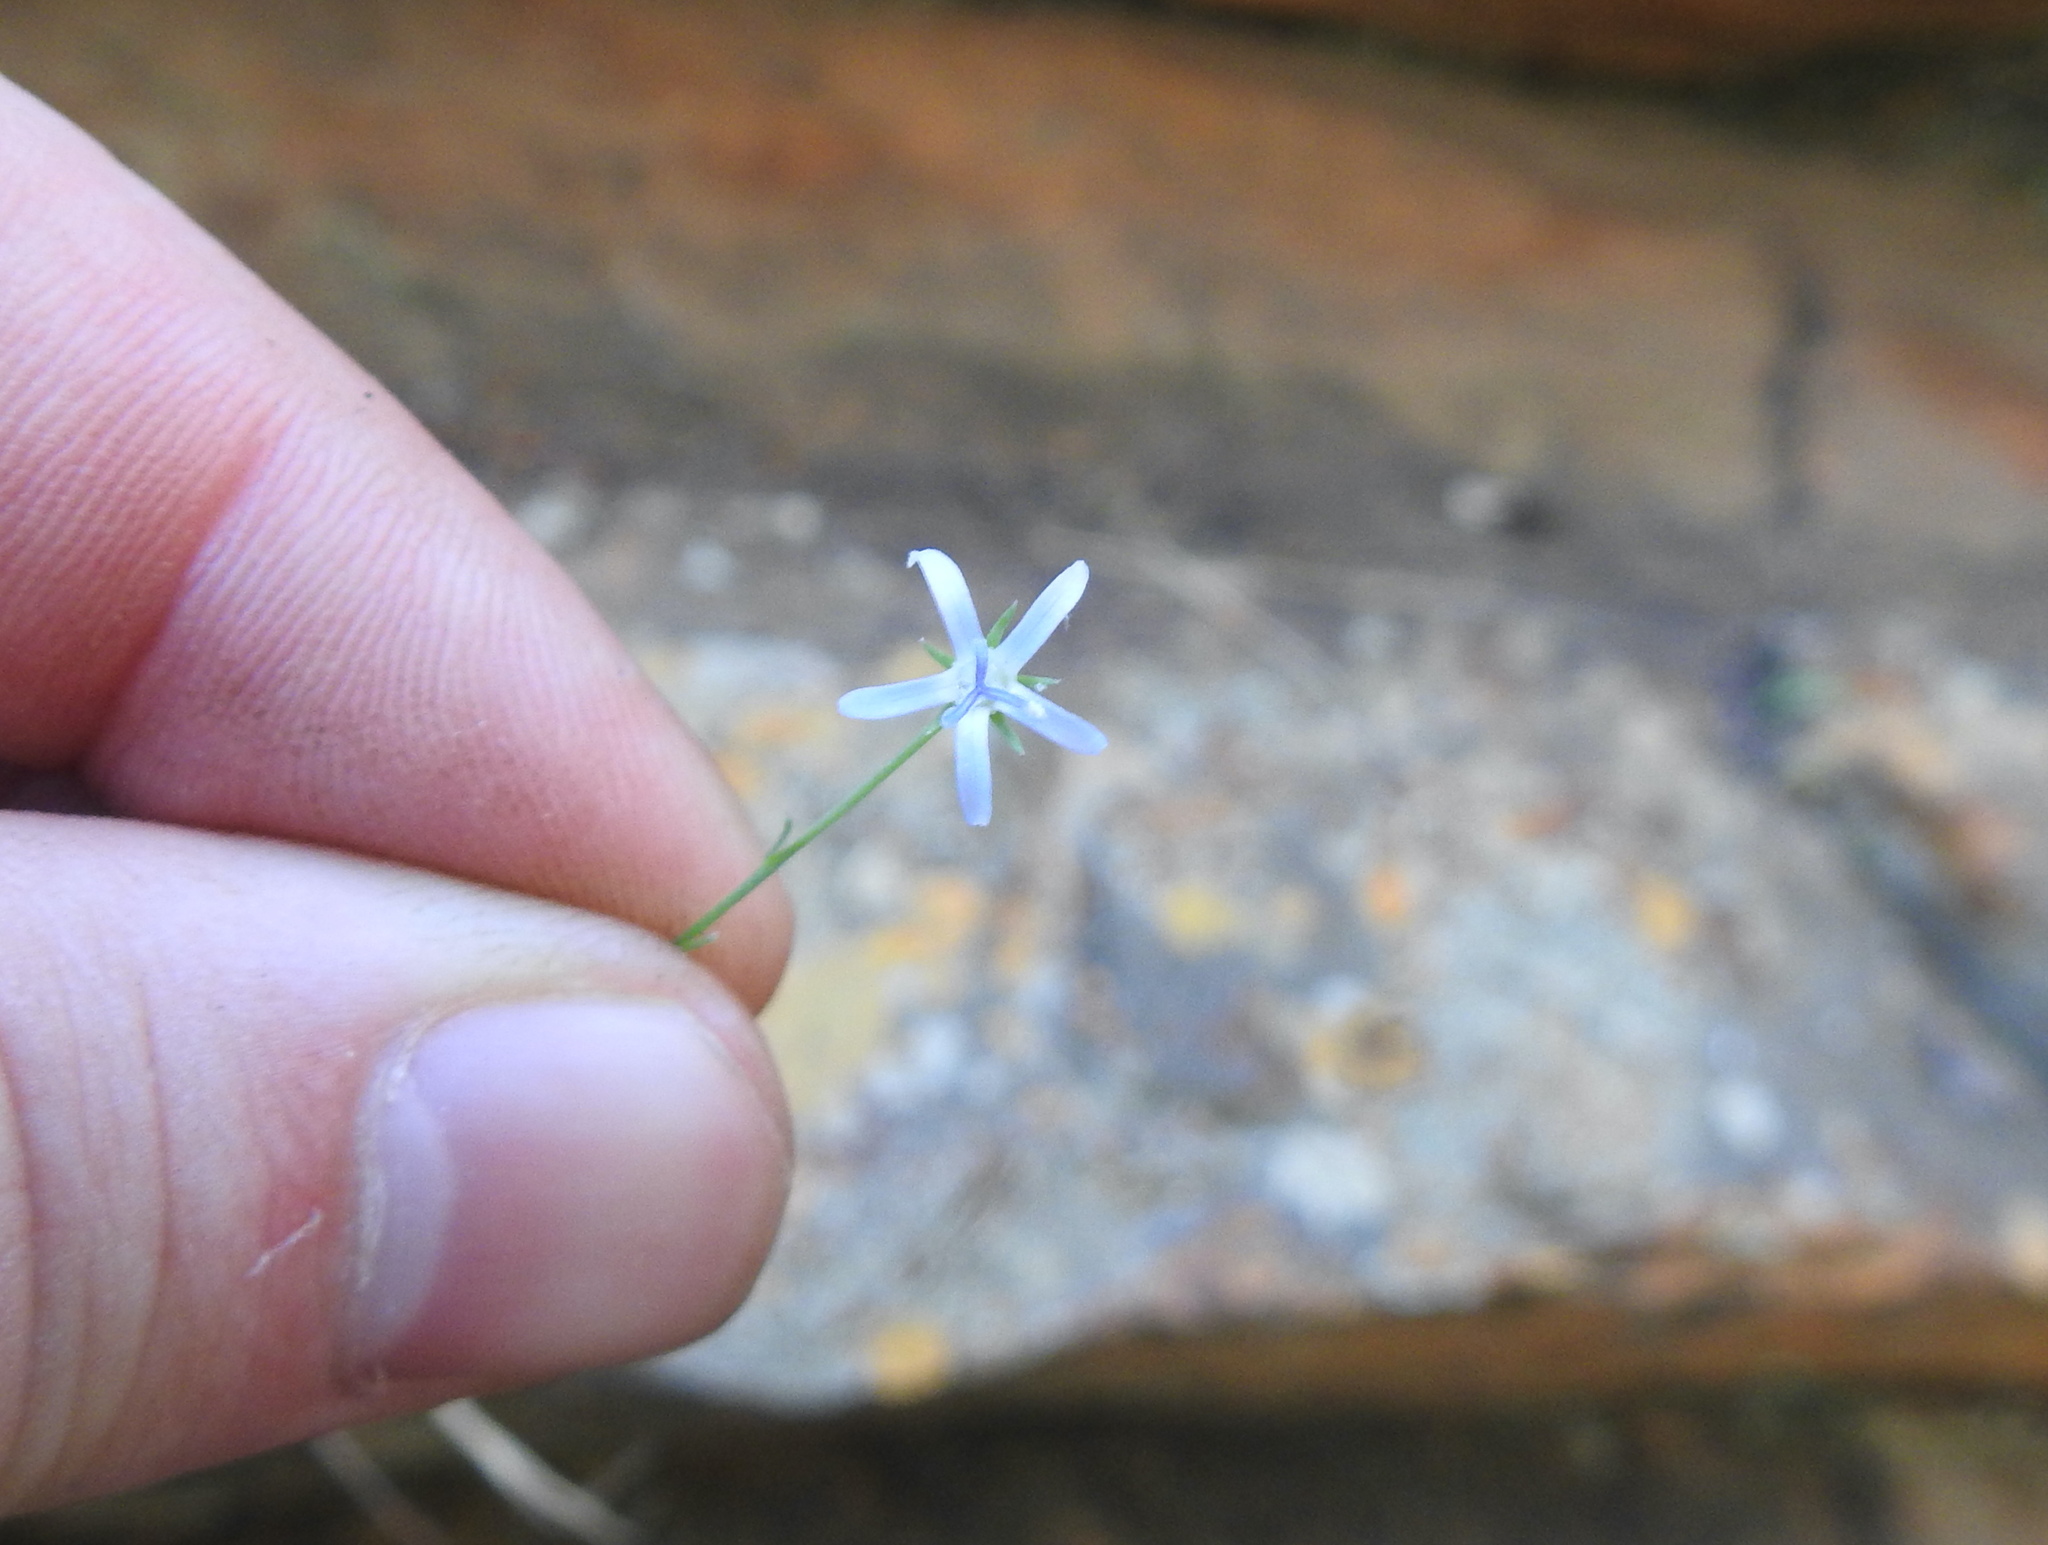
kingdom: Plantae
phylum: Tracheophyta
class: Magnoliopsida
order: Asterales
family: Campanulaceae
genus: Wahlenbergia
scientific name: Wahlenbergia magaliesbergensis
